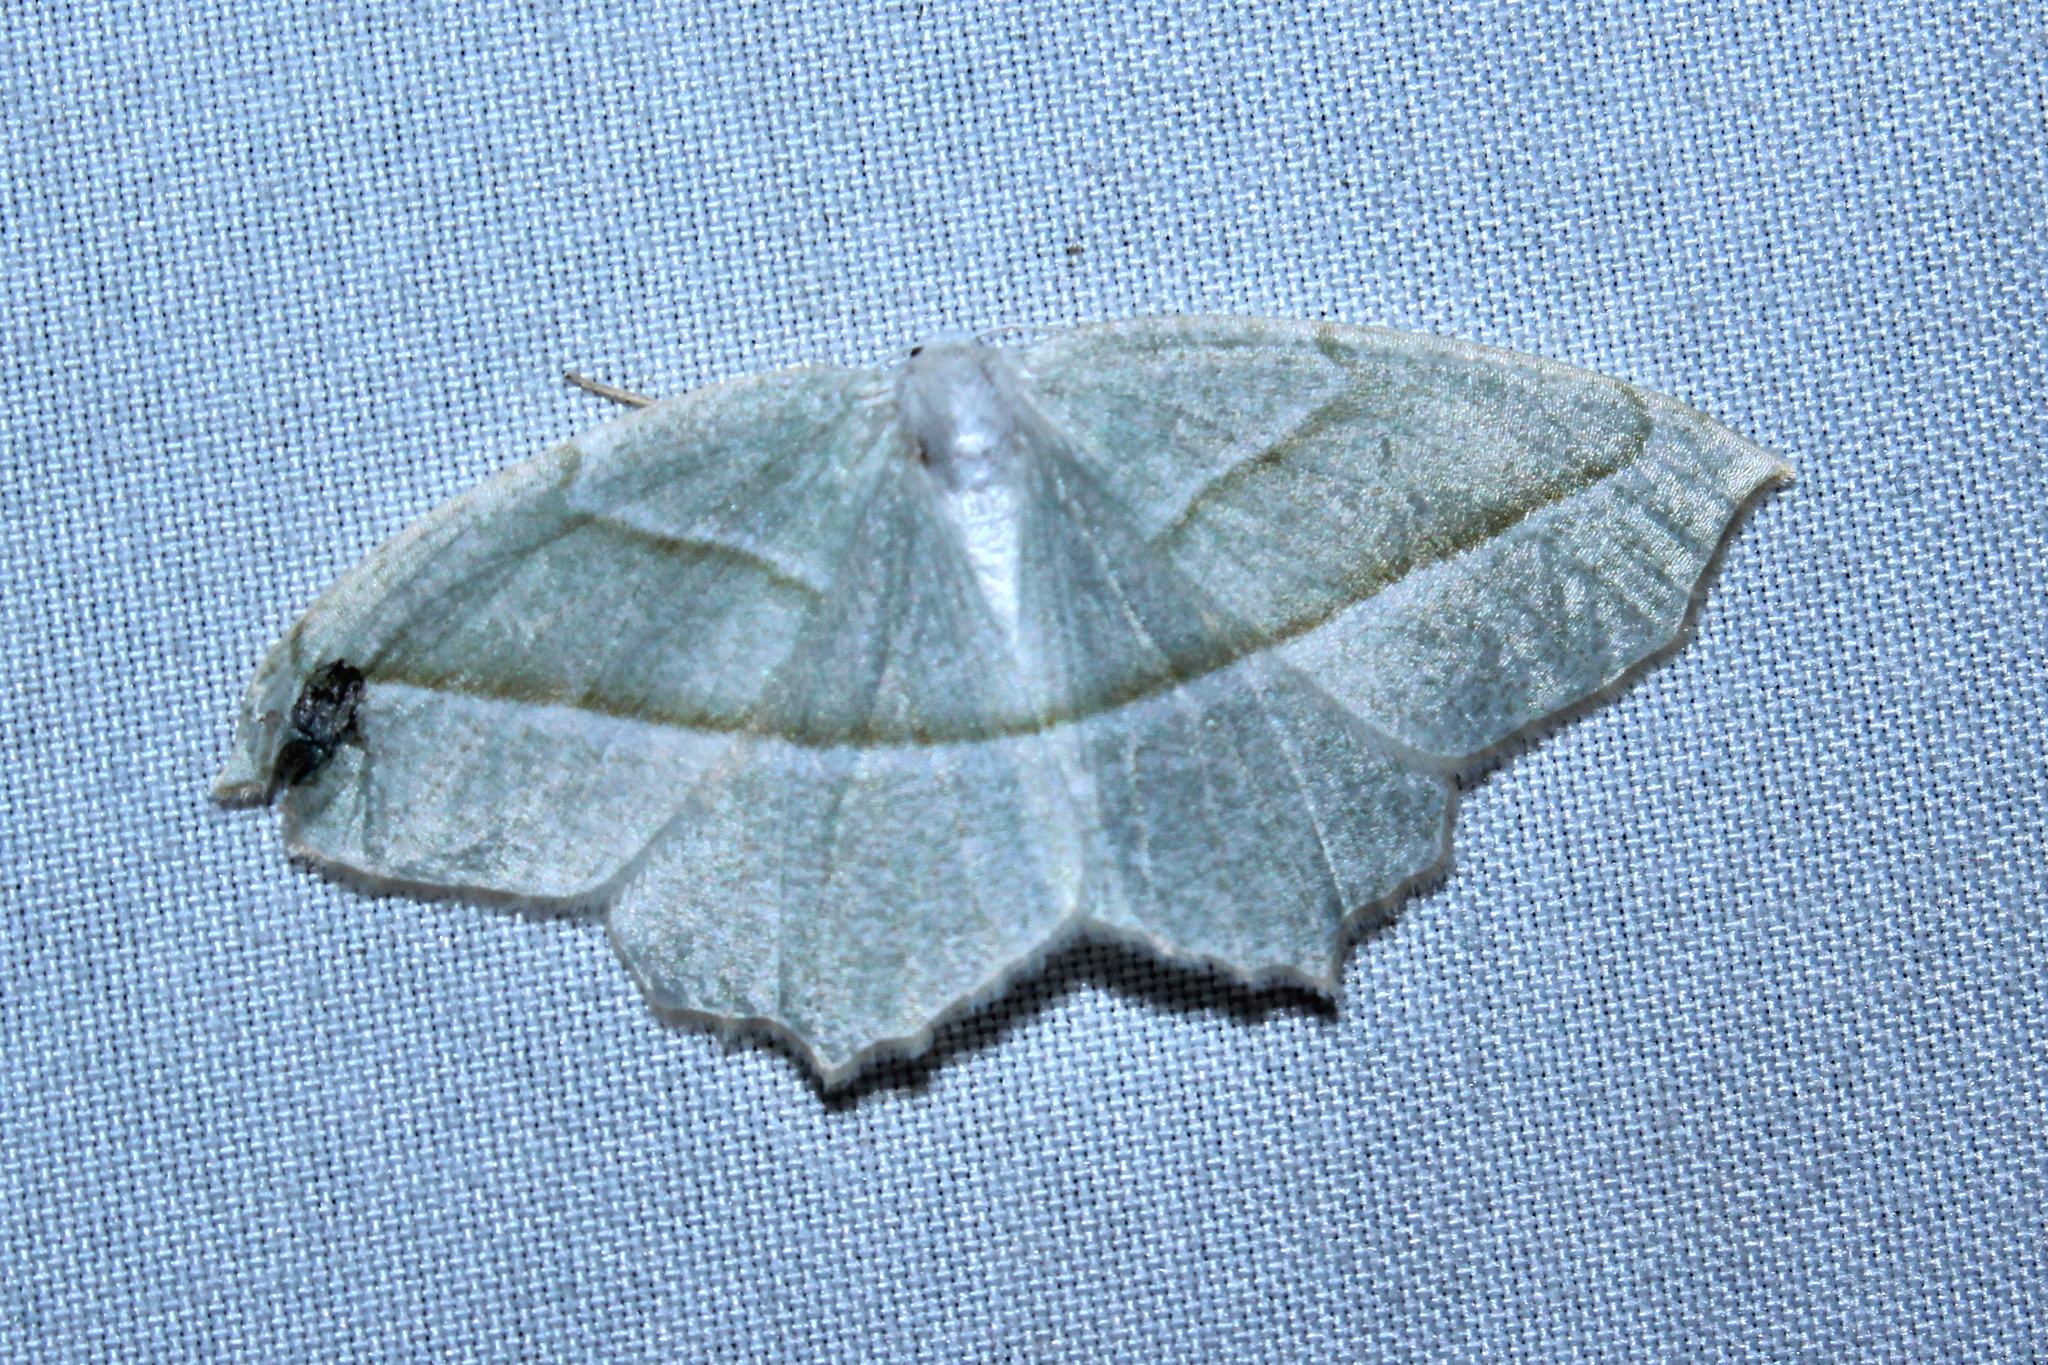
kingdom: Animalia
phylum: Arthropoda
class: Insecta
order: Lepidoptera
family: Geometridae
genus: Campaea
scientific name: Campaea perlata
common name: Fringed looper
